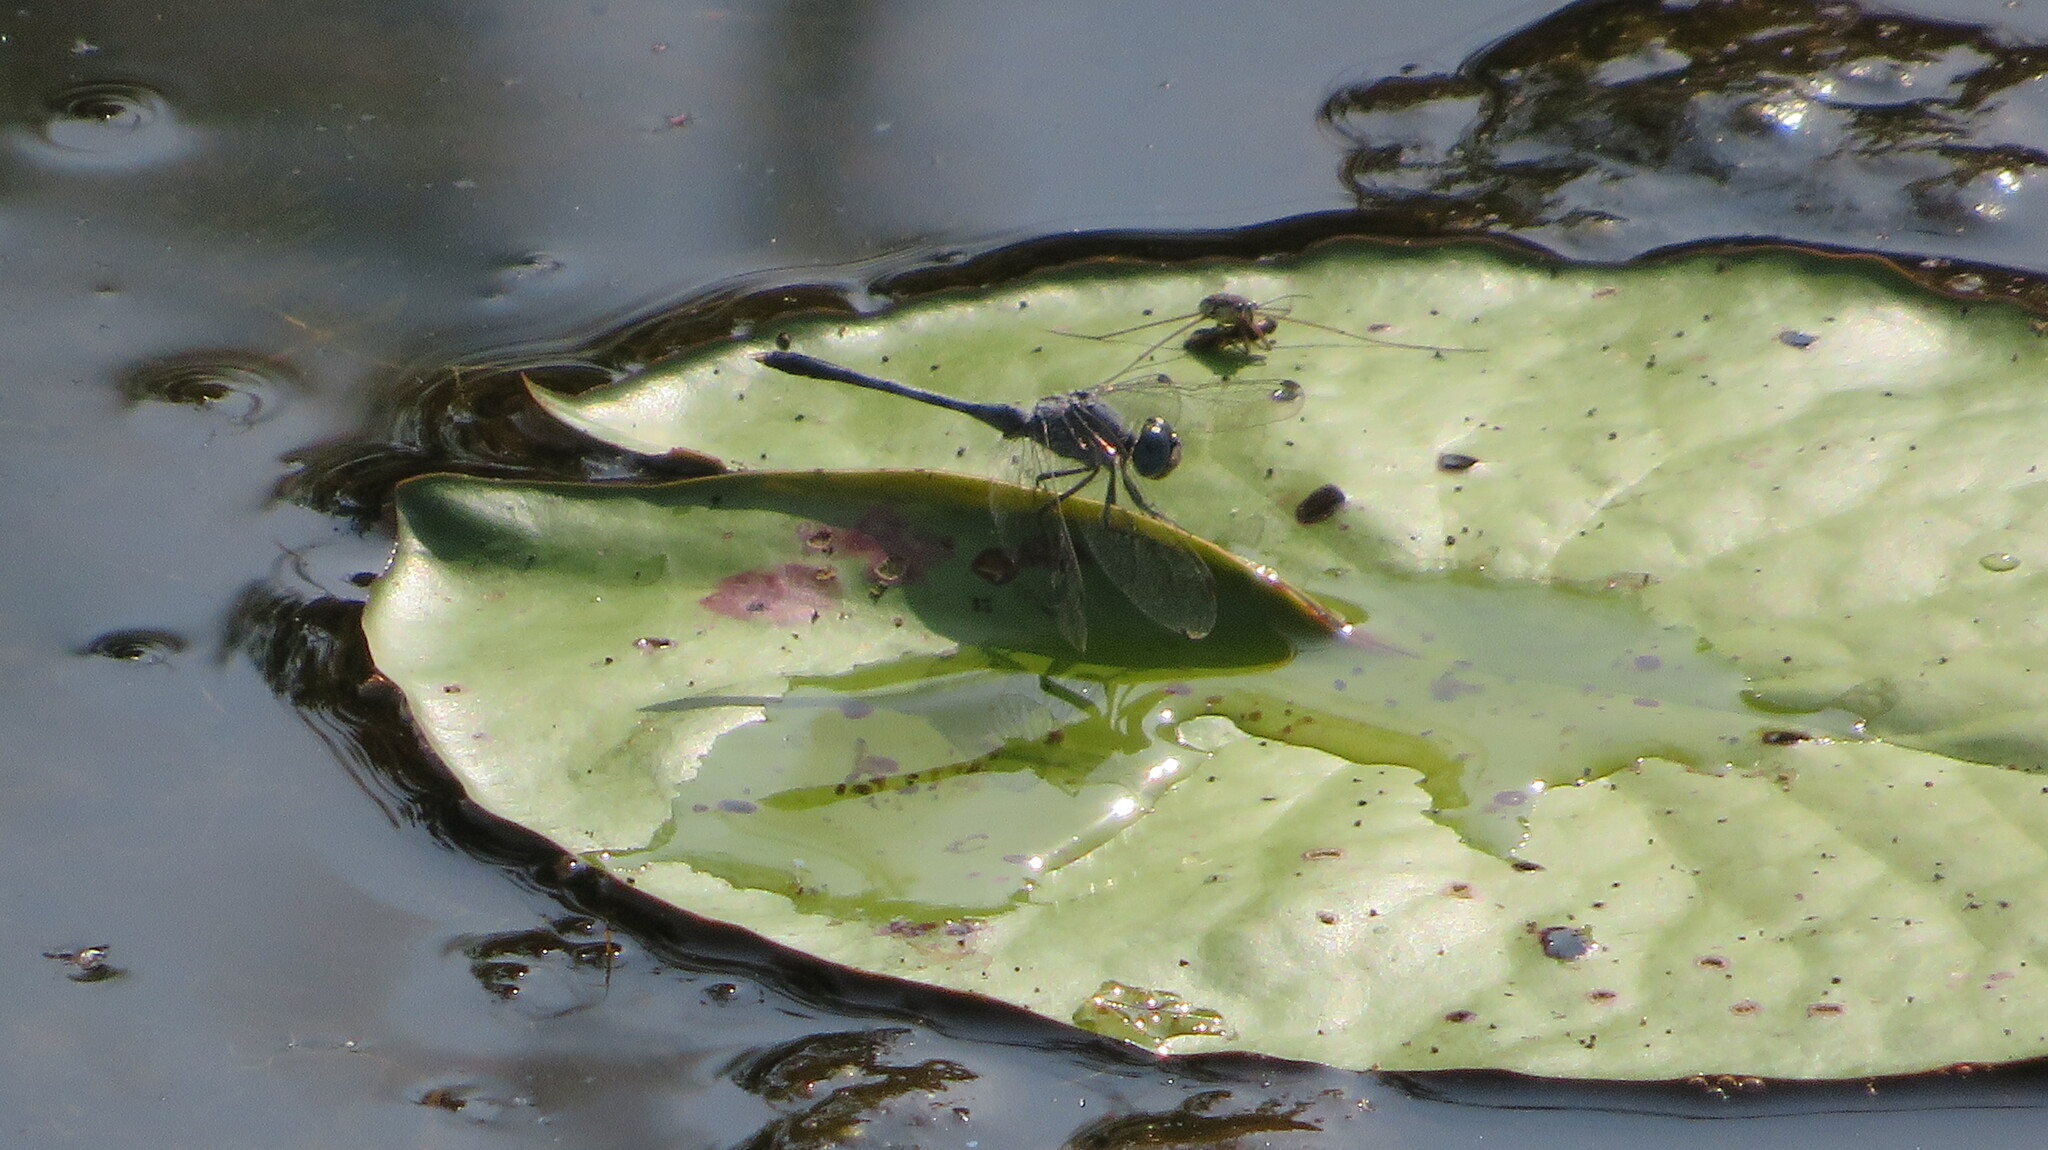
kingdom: Animalia
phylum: Arthropoda
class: Insecta
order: Odonata
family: Libellulidae
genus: Diplacodes
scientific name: Diplacodes trivialis
